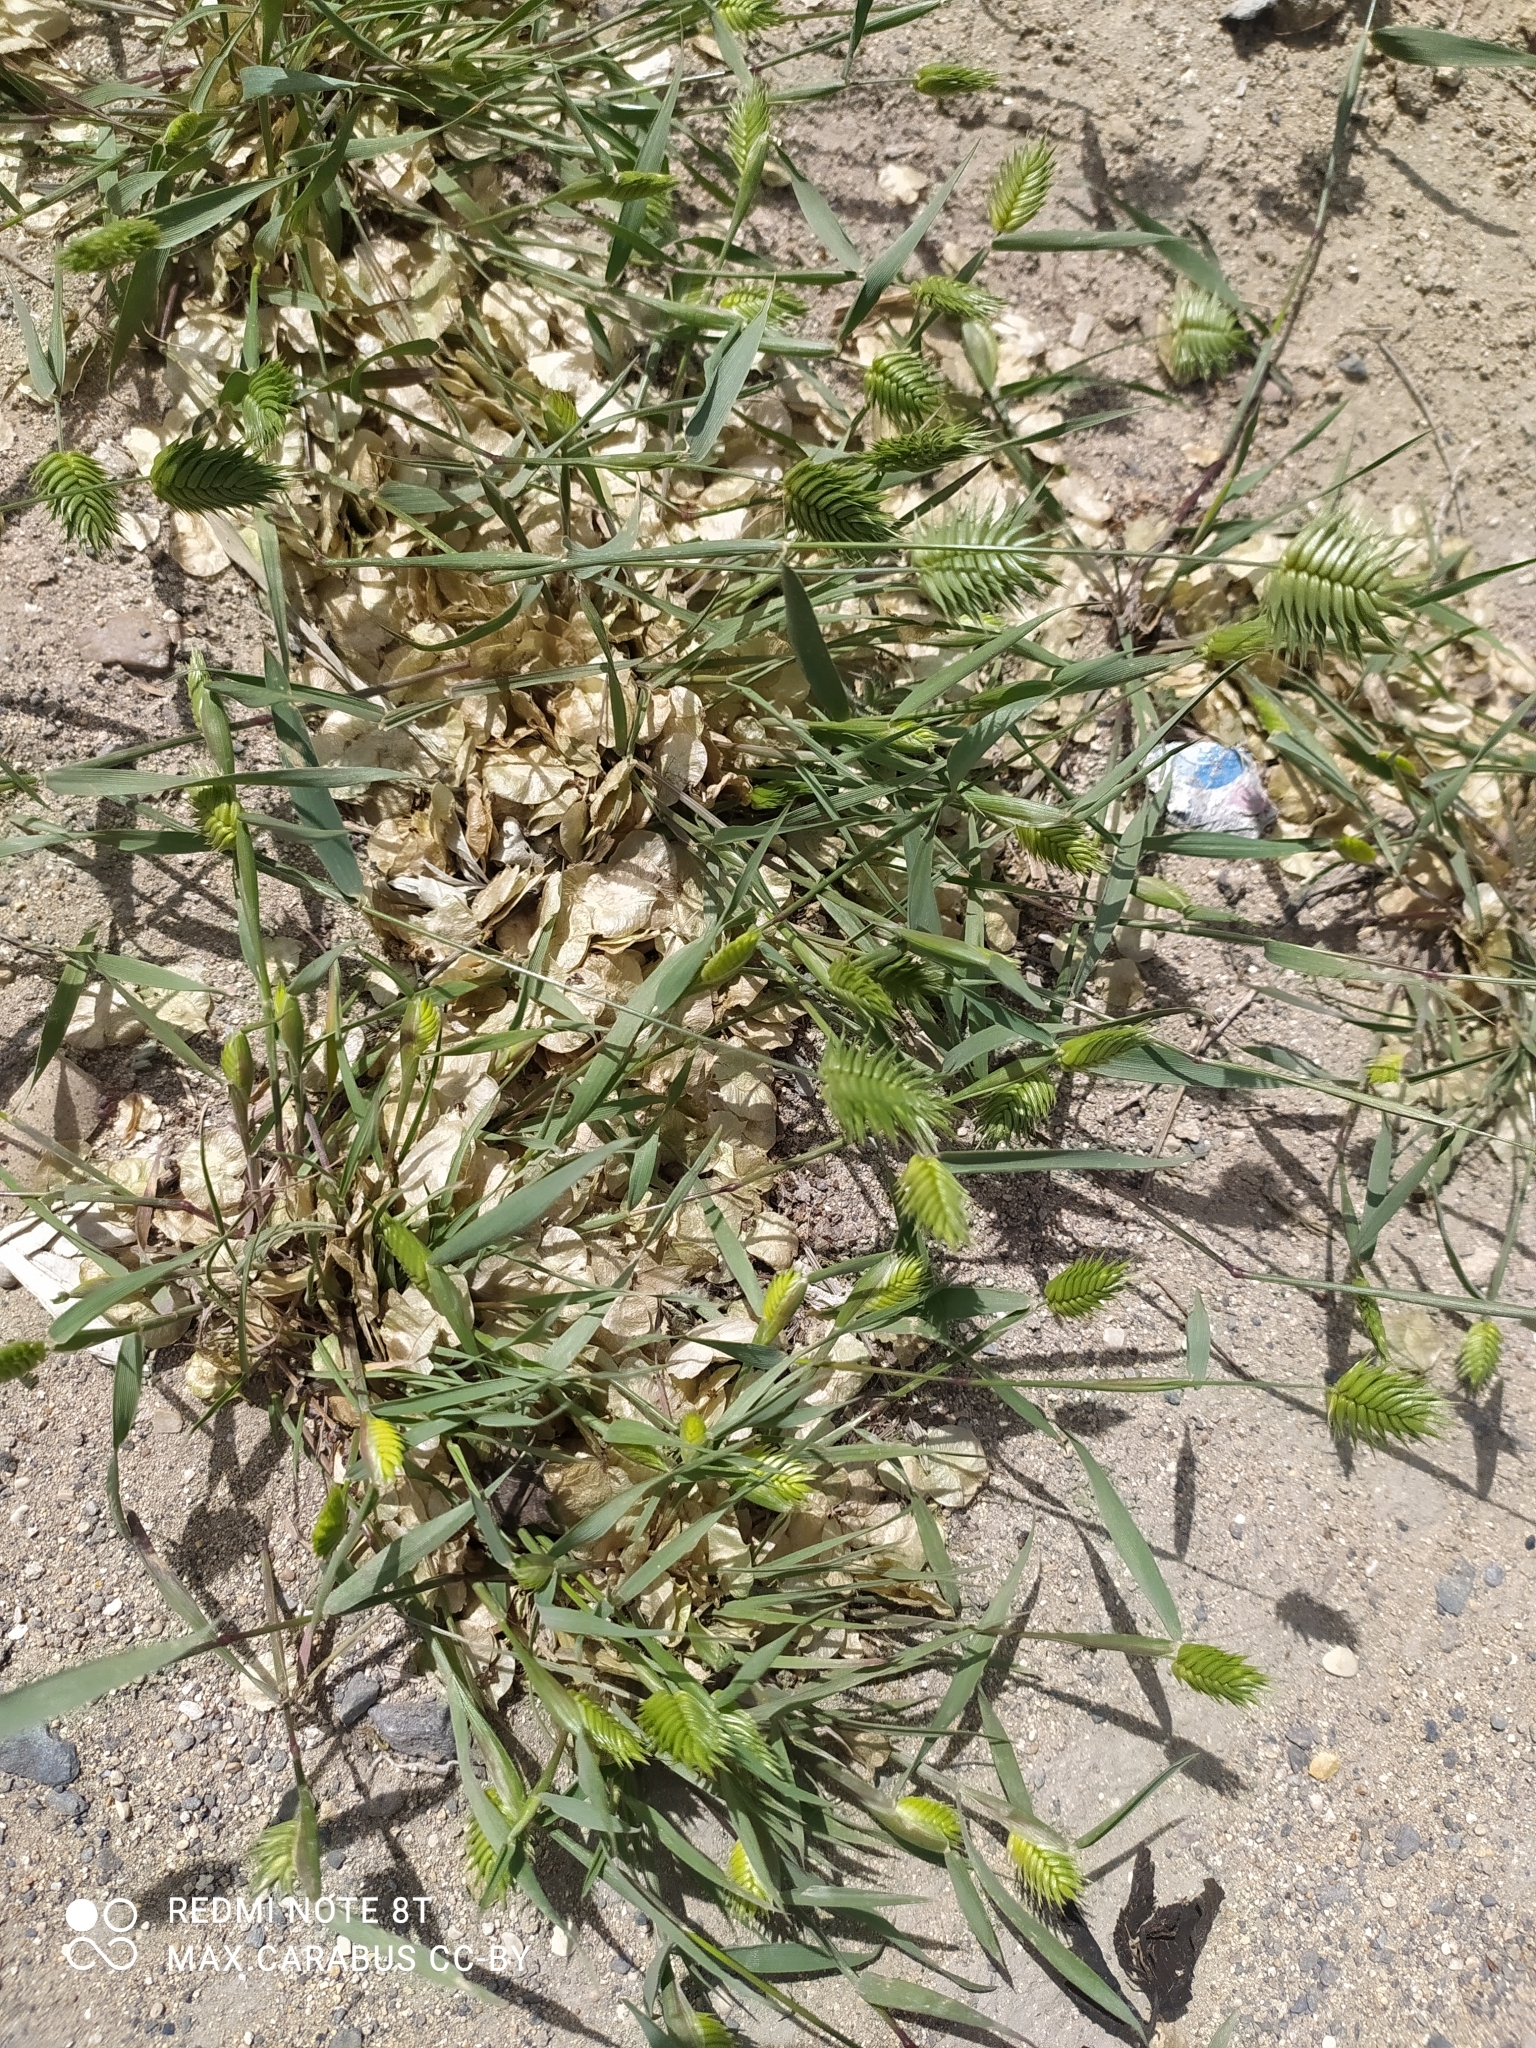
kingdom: Plantae
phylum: Tracheophyta
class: Liliopsida
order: Poales
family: Poaceae
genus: Eremopyrum
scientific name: Eremopyrum triticeum
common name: Annual wheatgrass
